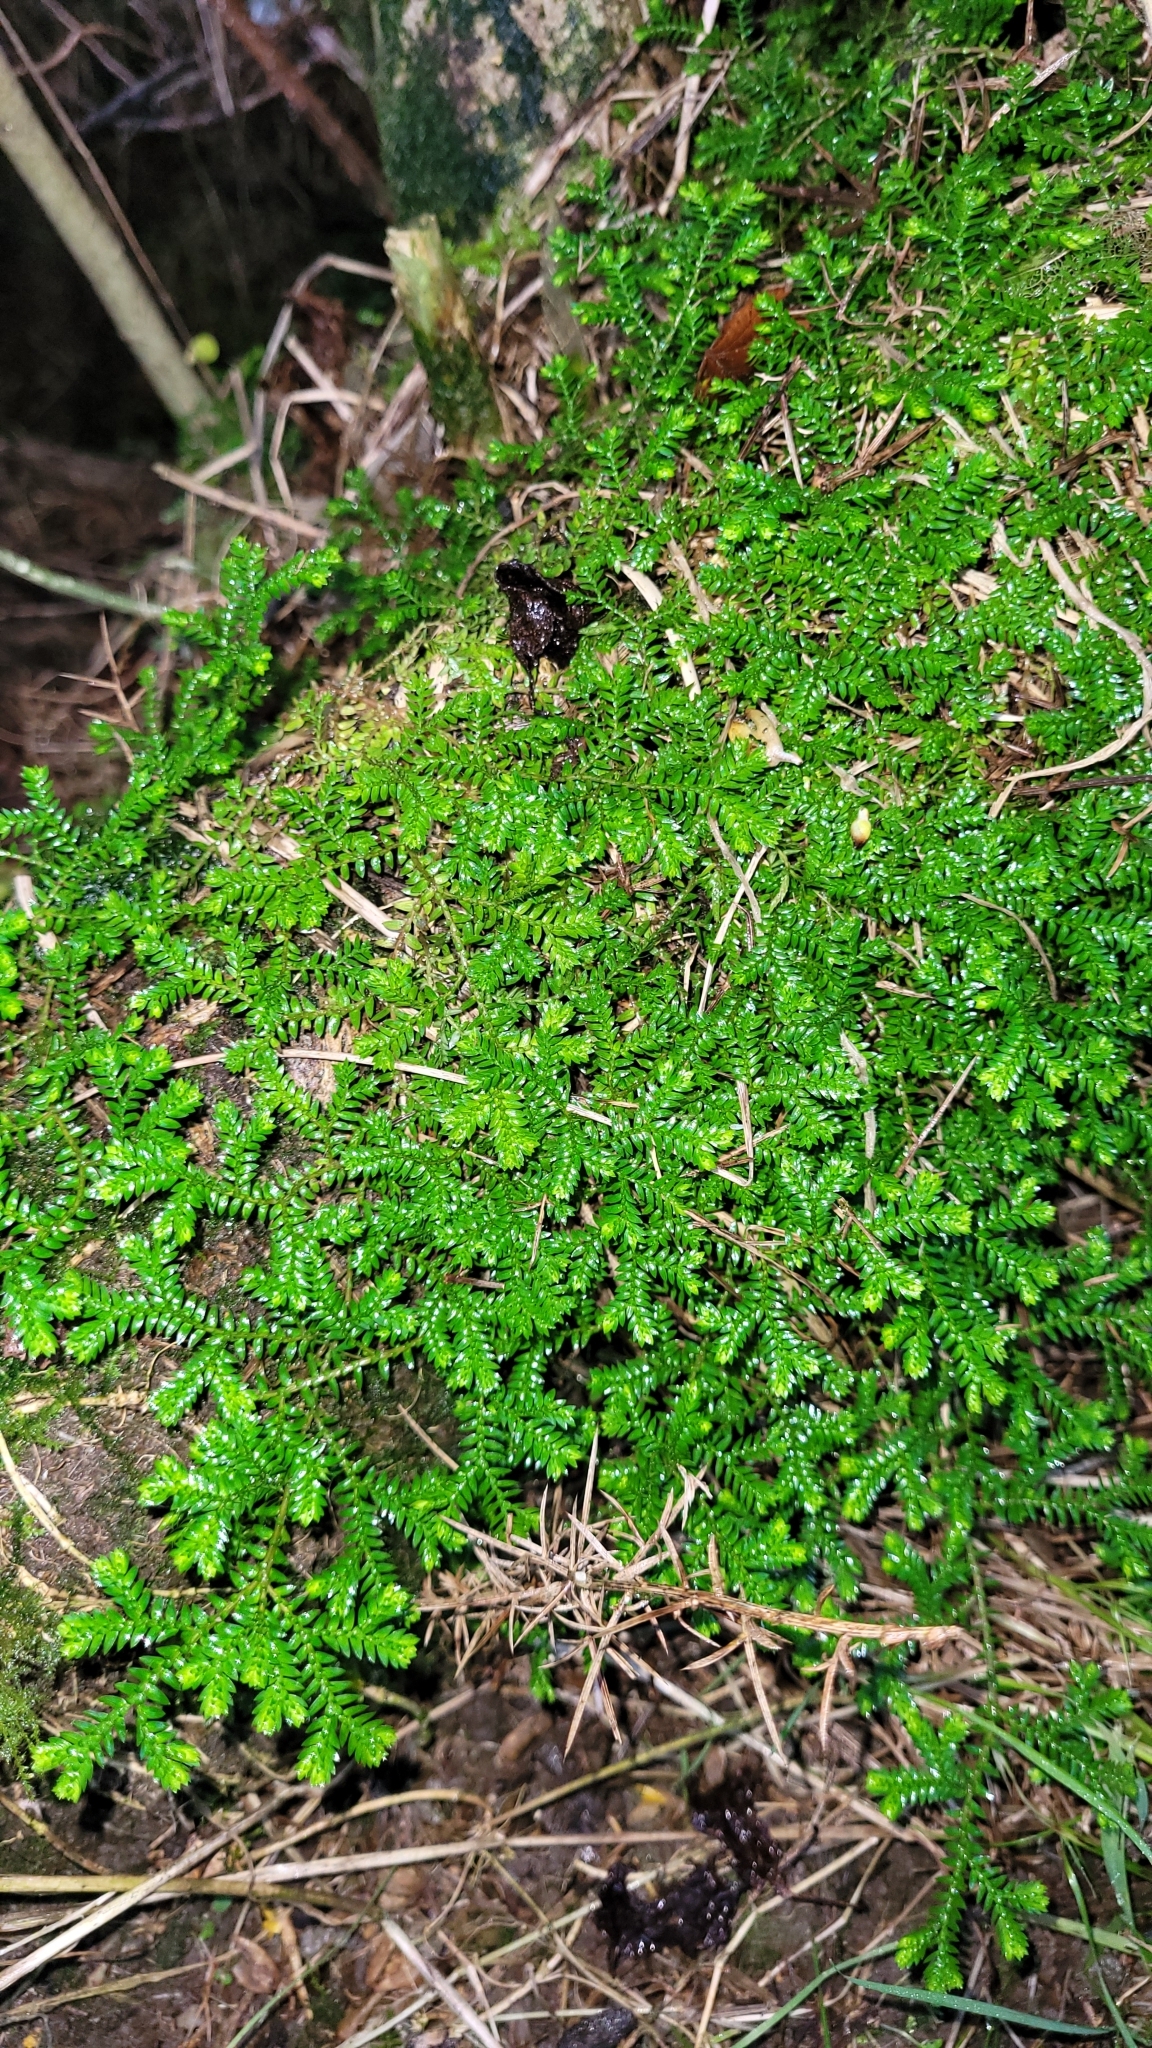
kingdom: Plantae
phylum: Tracheophyta
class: Lycopodiopsida
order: Selaginellales
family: Selaginellaceae
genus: Selaginella
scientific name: Selaginella kraussiana
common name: Krauss' spikemoss
